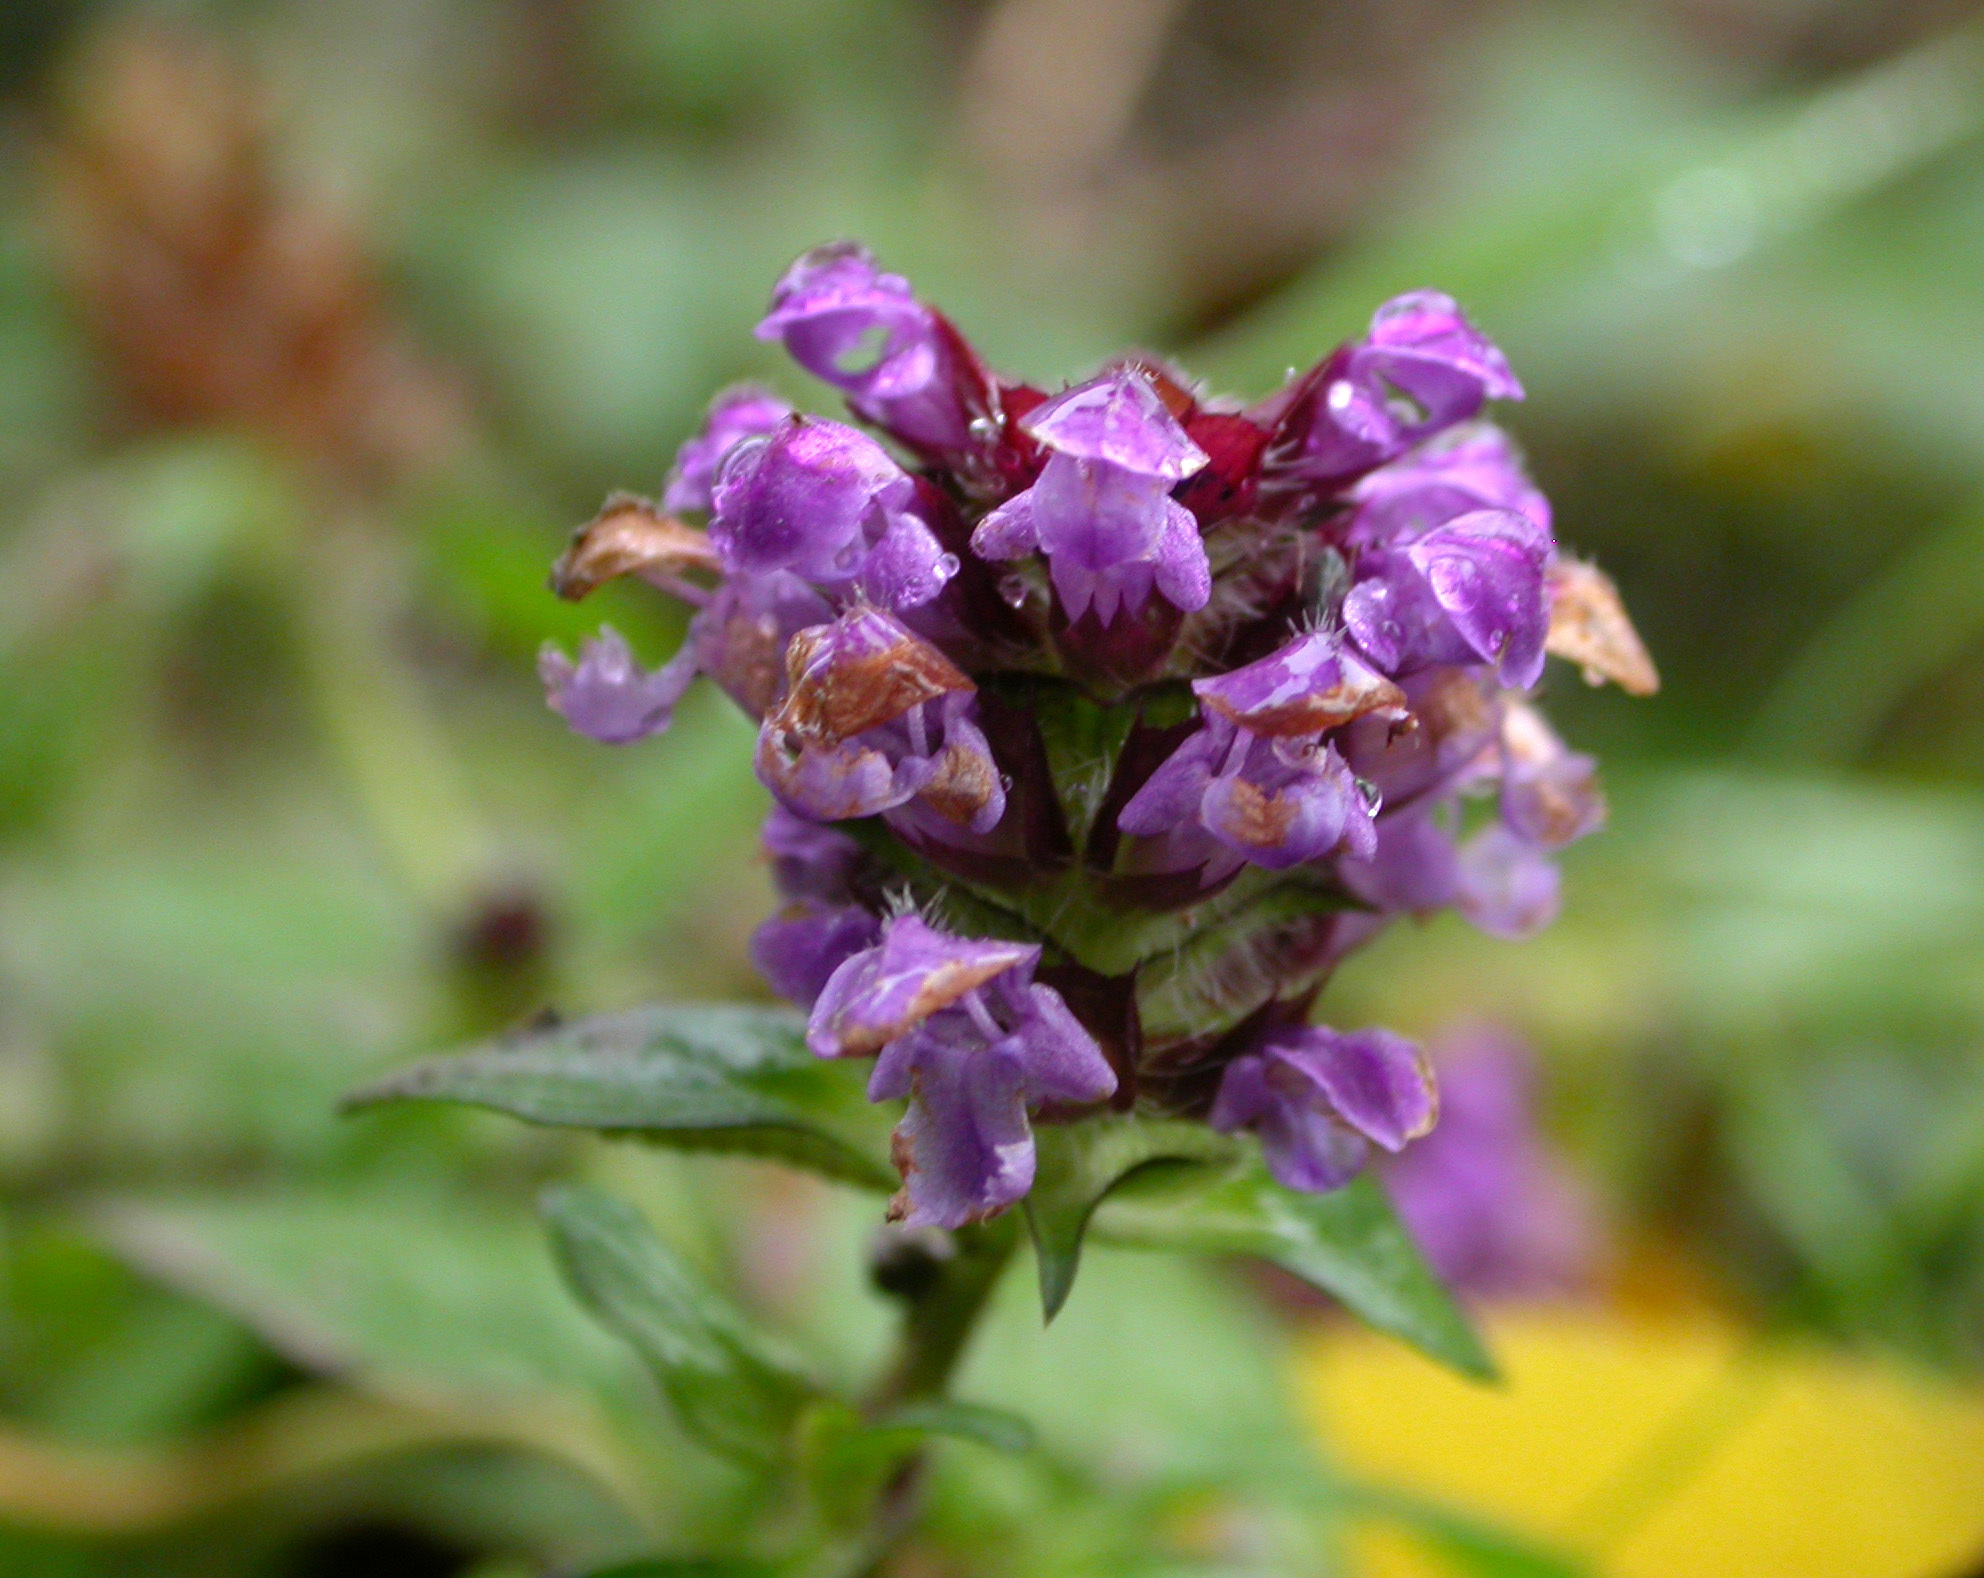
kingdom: Plantae
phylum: Tracheophyta
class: Magnoliopsida
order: Lamiales
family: Lamiaceae
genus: Prunella
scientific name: Prunella vulgaris
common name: Heal-all
